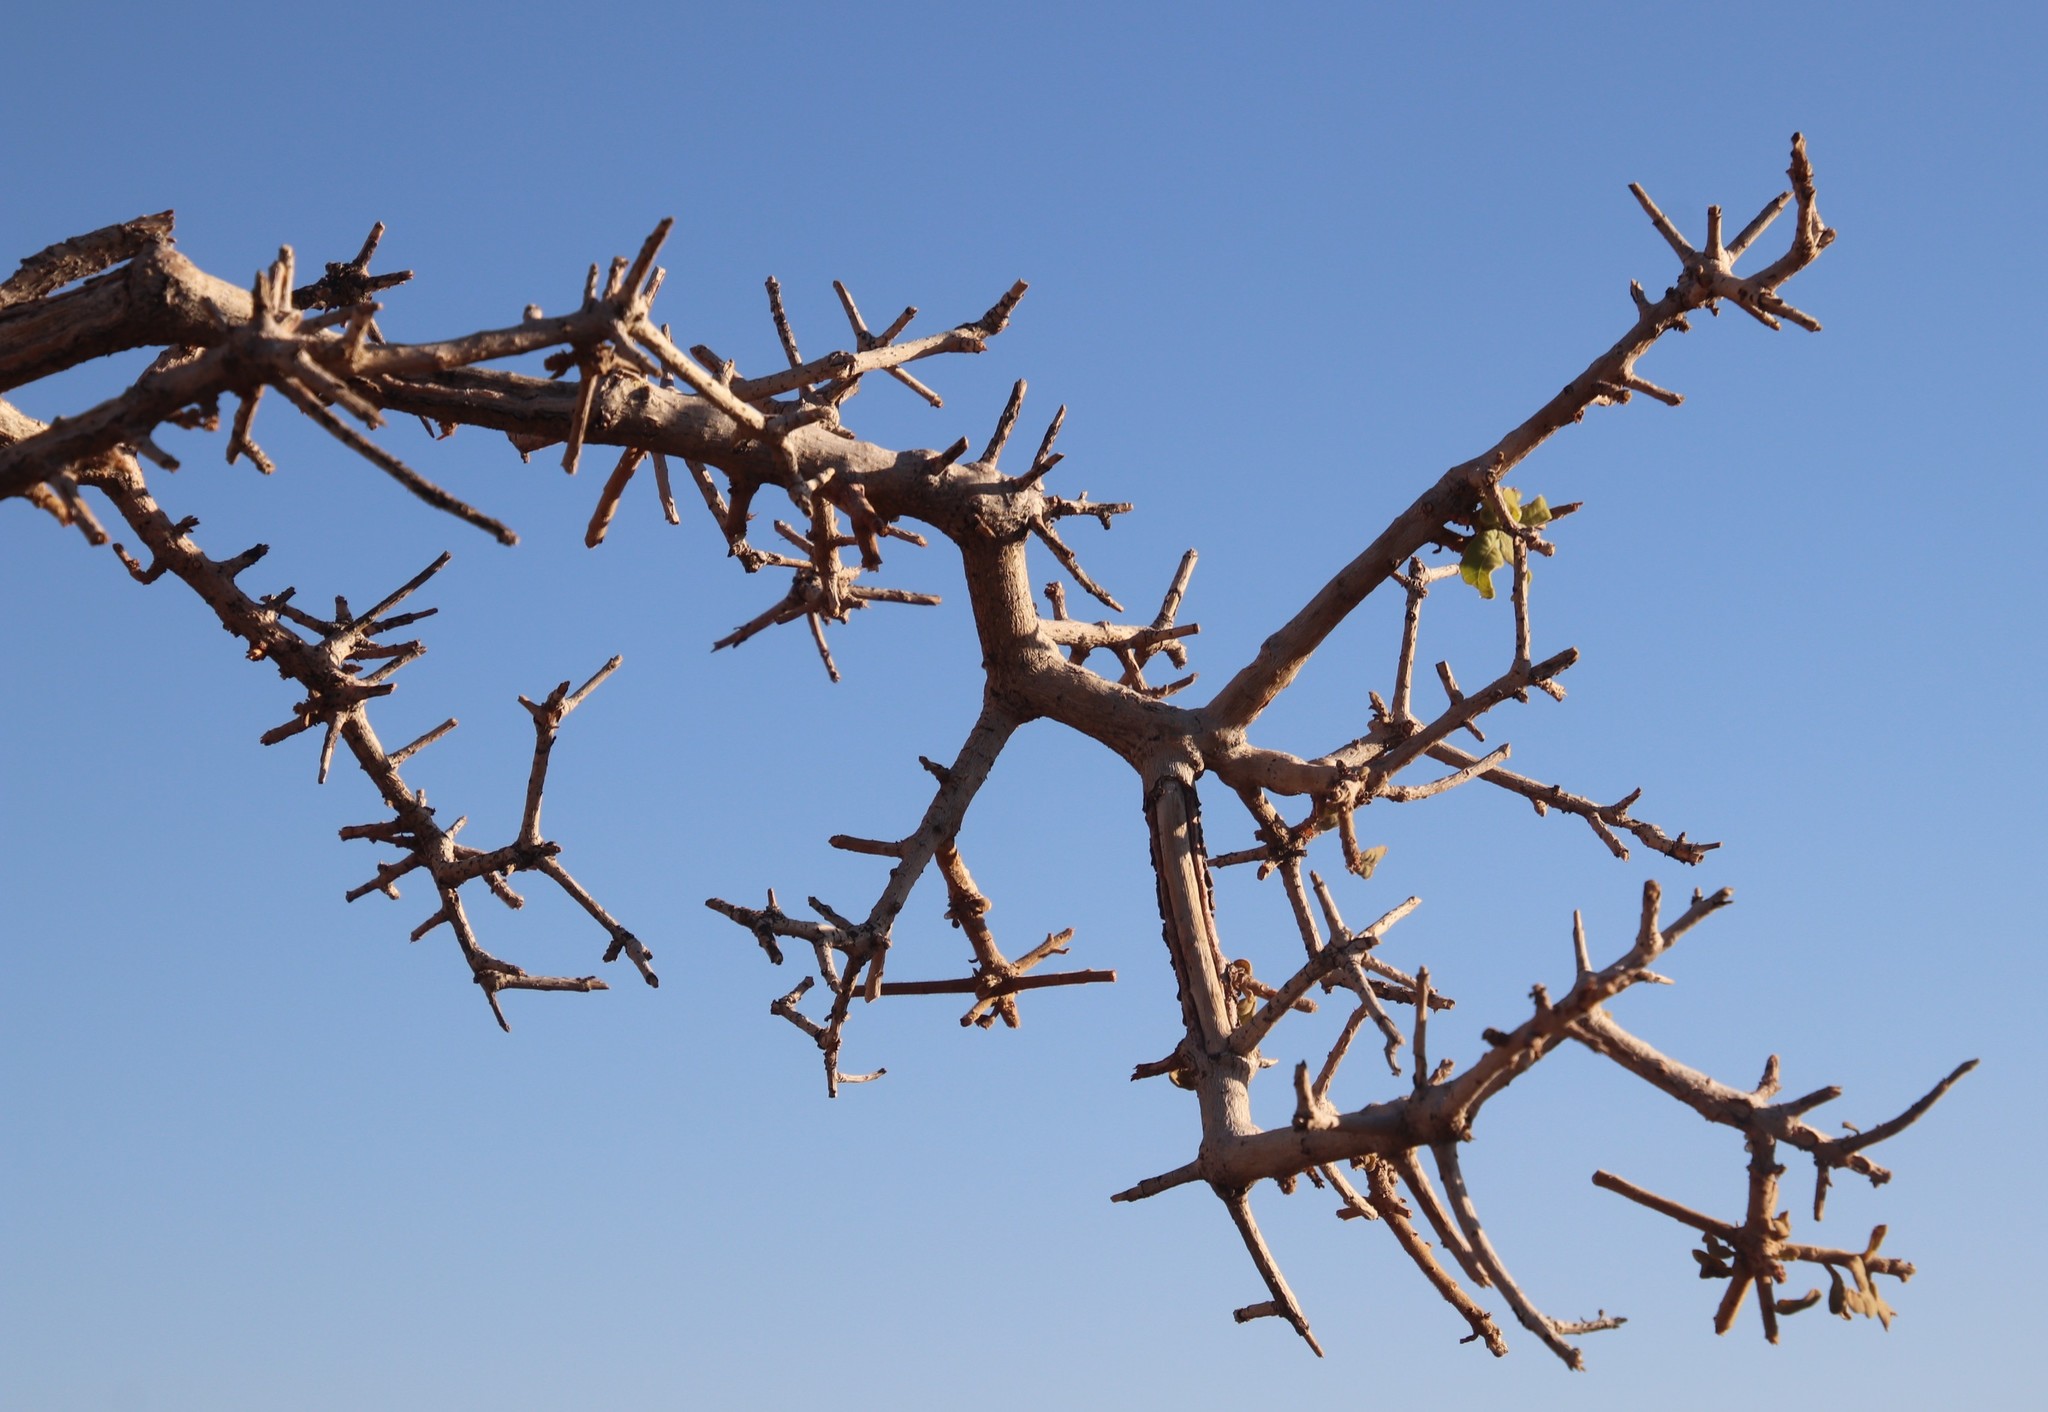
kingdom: Plantae
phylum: Tracheophyta
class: Magnoliopsida
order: Sapindales
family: Anacardiaceae
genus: Ozoroa
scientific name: Ozoroa namaensis
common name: Nama resin tree
